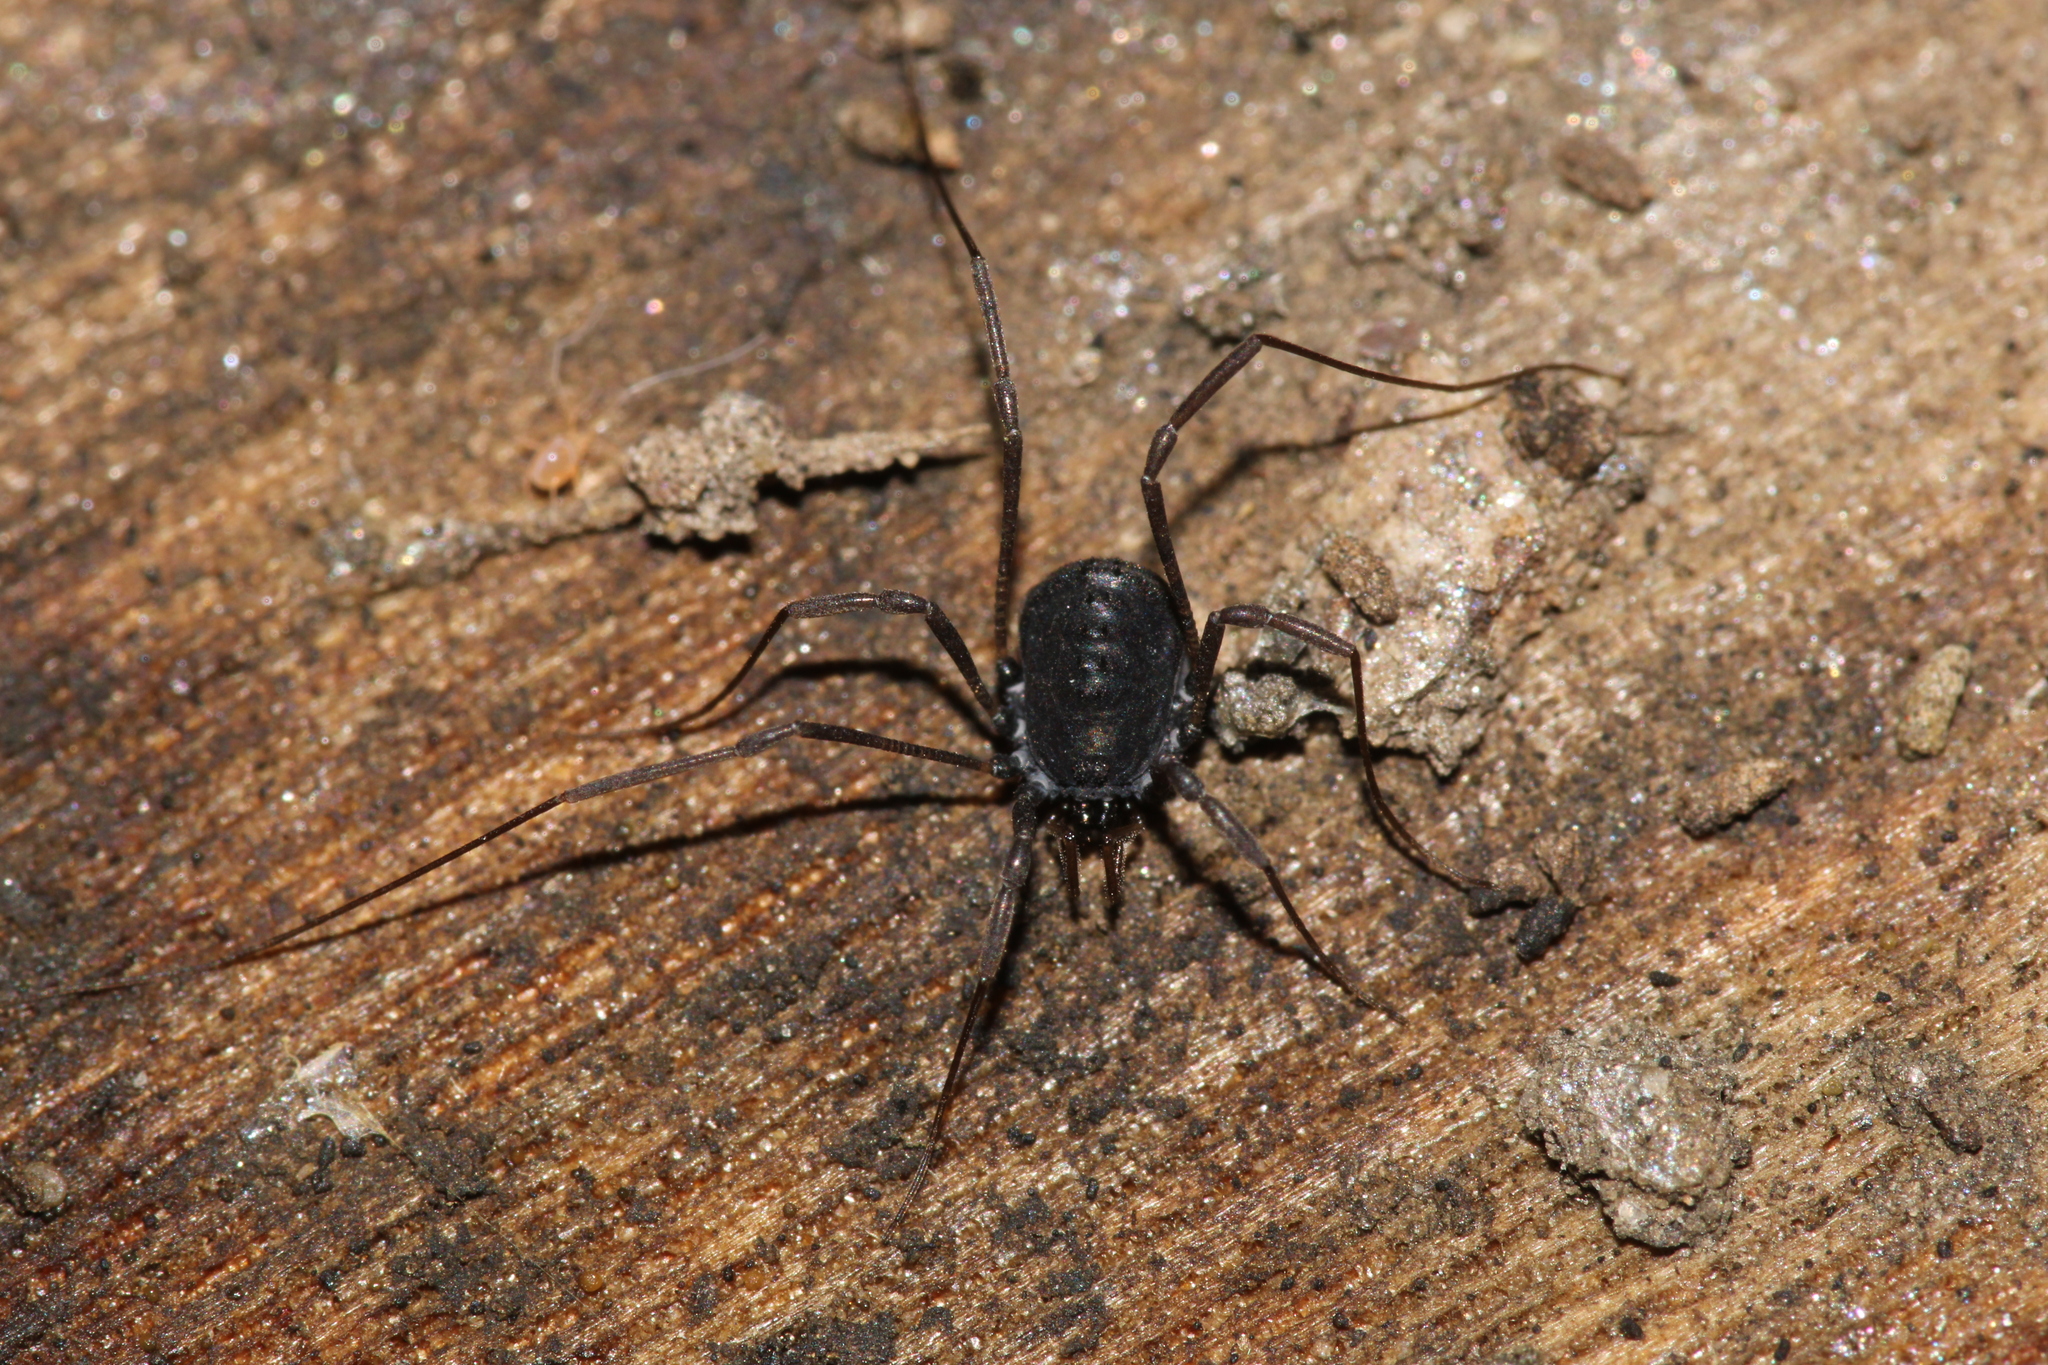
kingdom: Animalia
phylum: Arthropoda
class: Arachnida
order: Opiliones
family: Nemastomatidae
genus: Histricostoma
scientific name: Histricostoma dentipalpe
